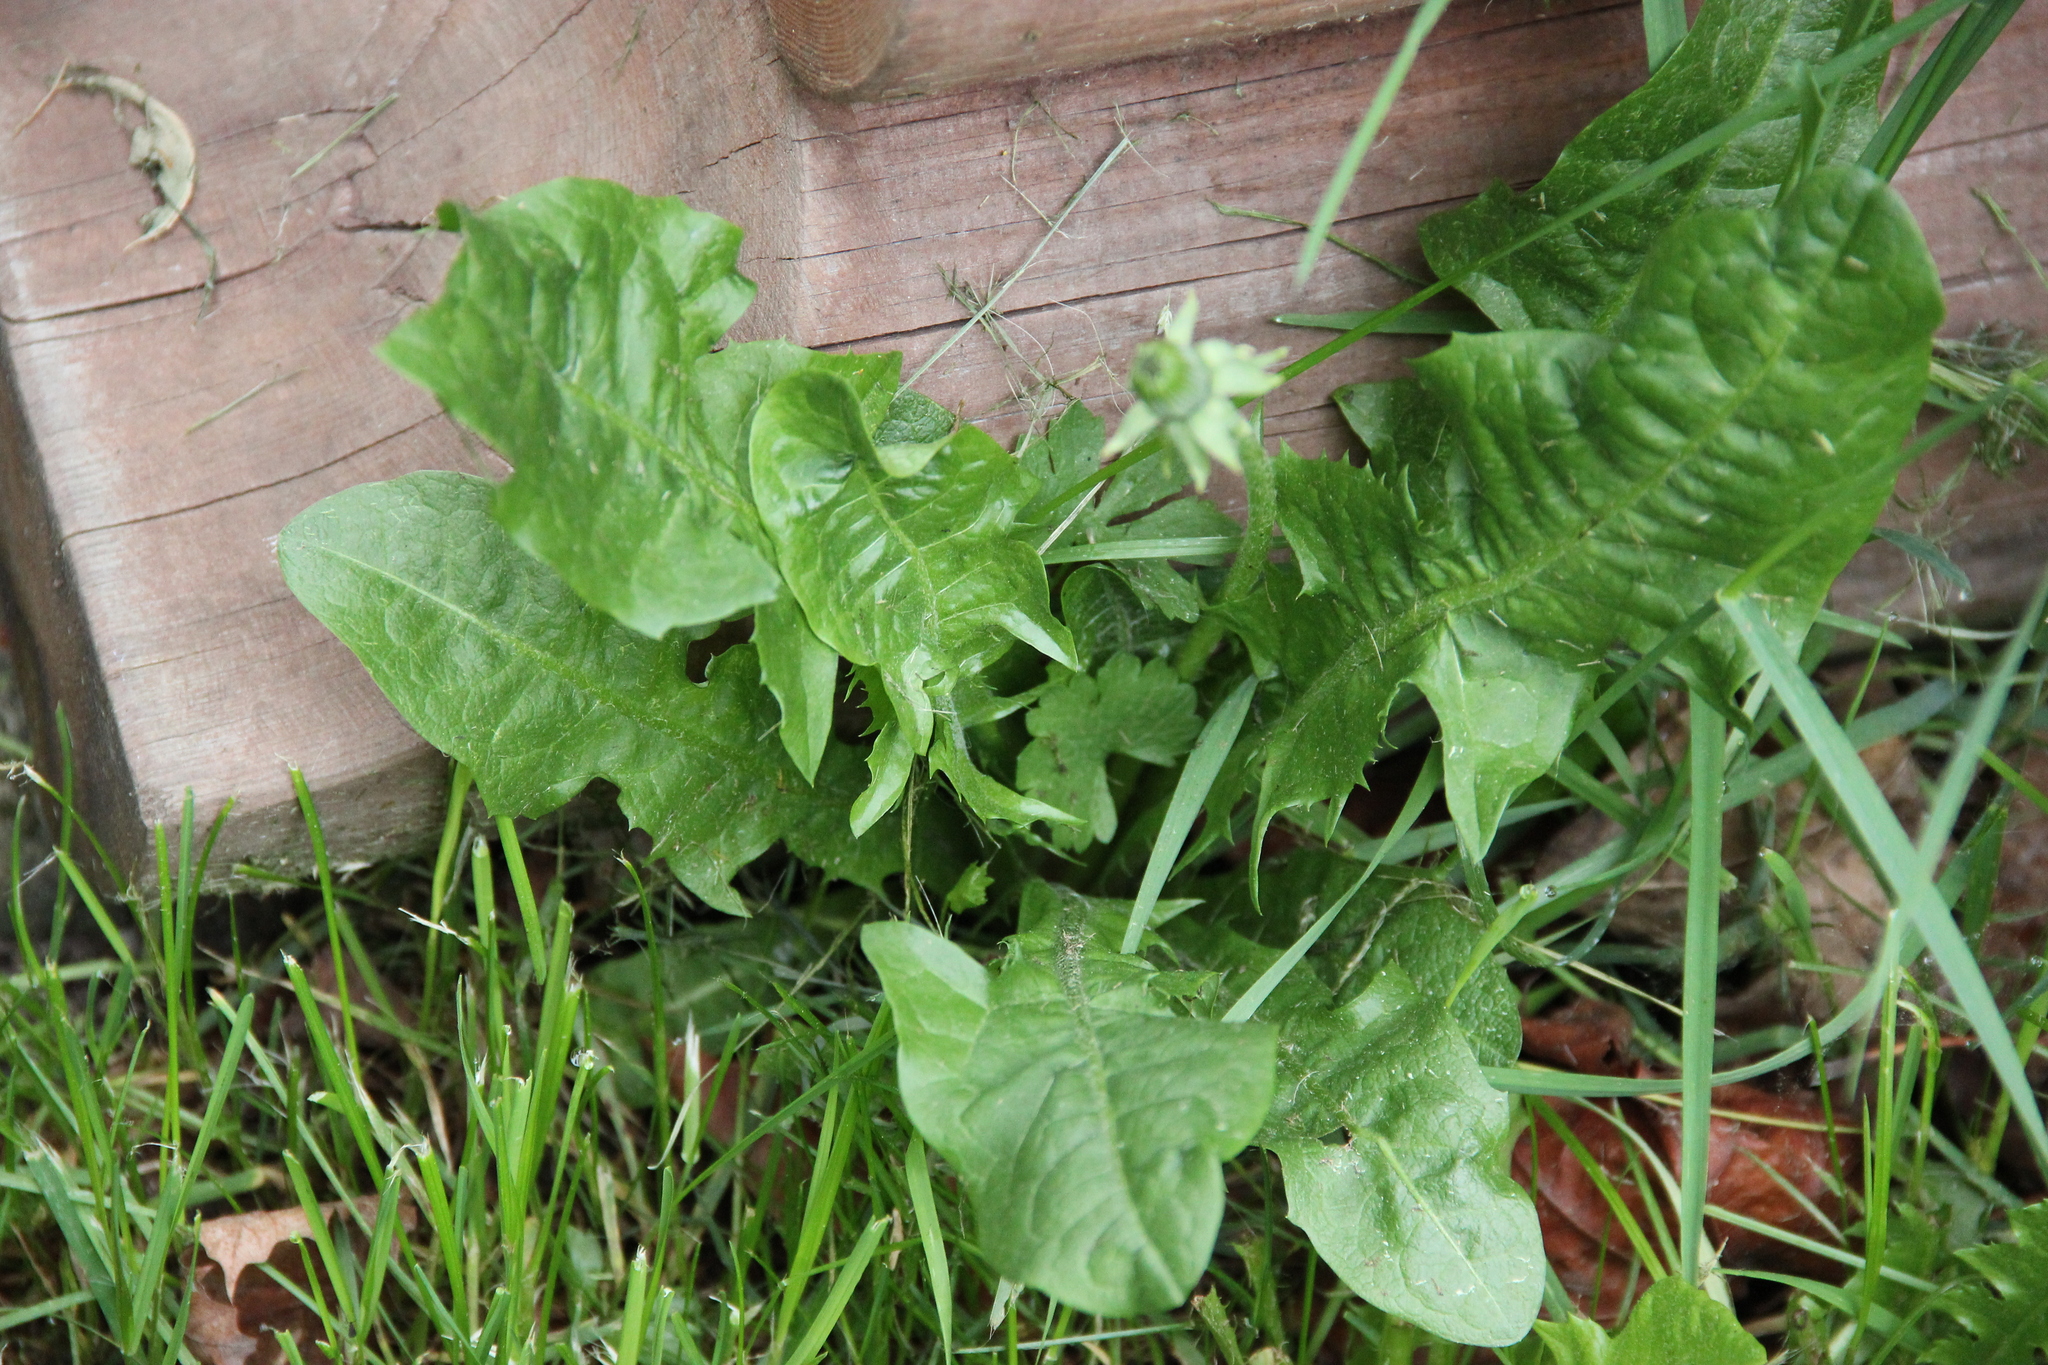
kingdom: Plantae
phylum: Tracheophyta
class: Magnoliopsida
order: Asterales
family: Asteraceae
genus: Taraxacum
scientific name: Taraxacum officinale
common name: Common dandelion
